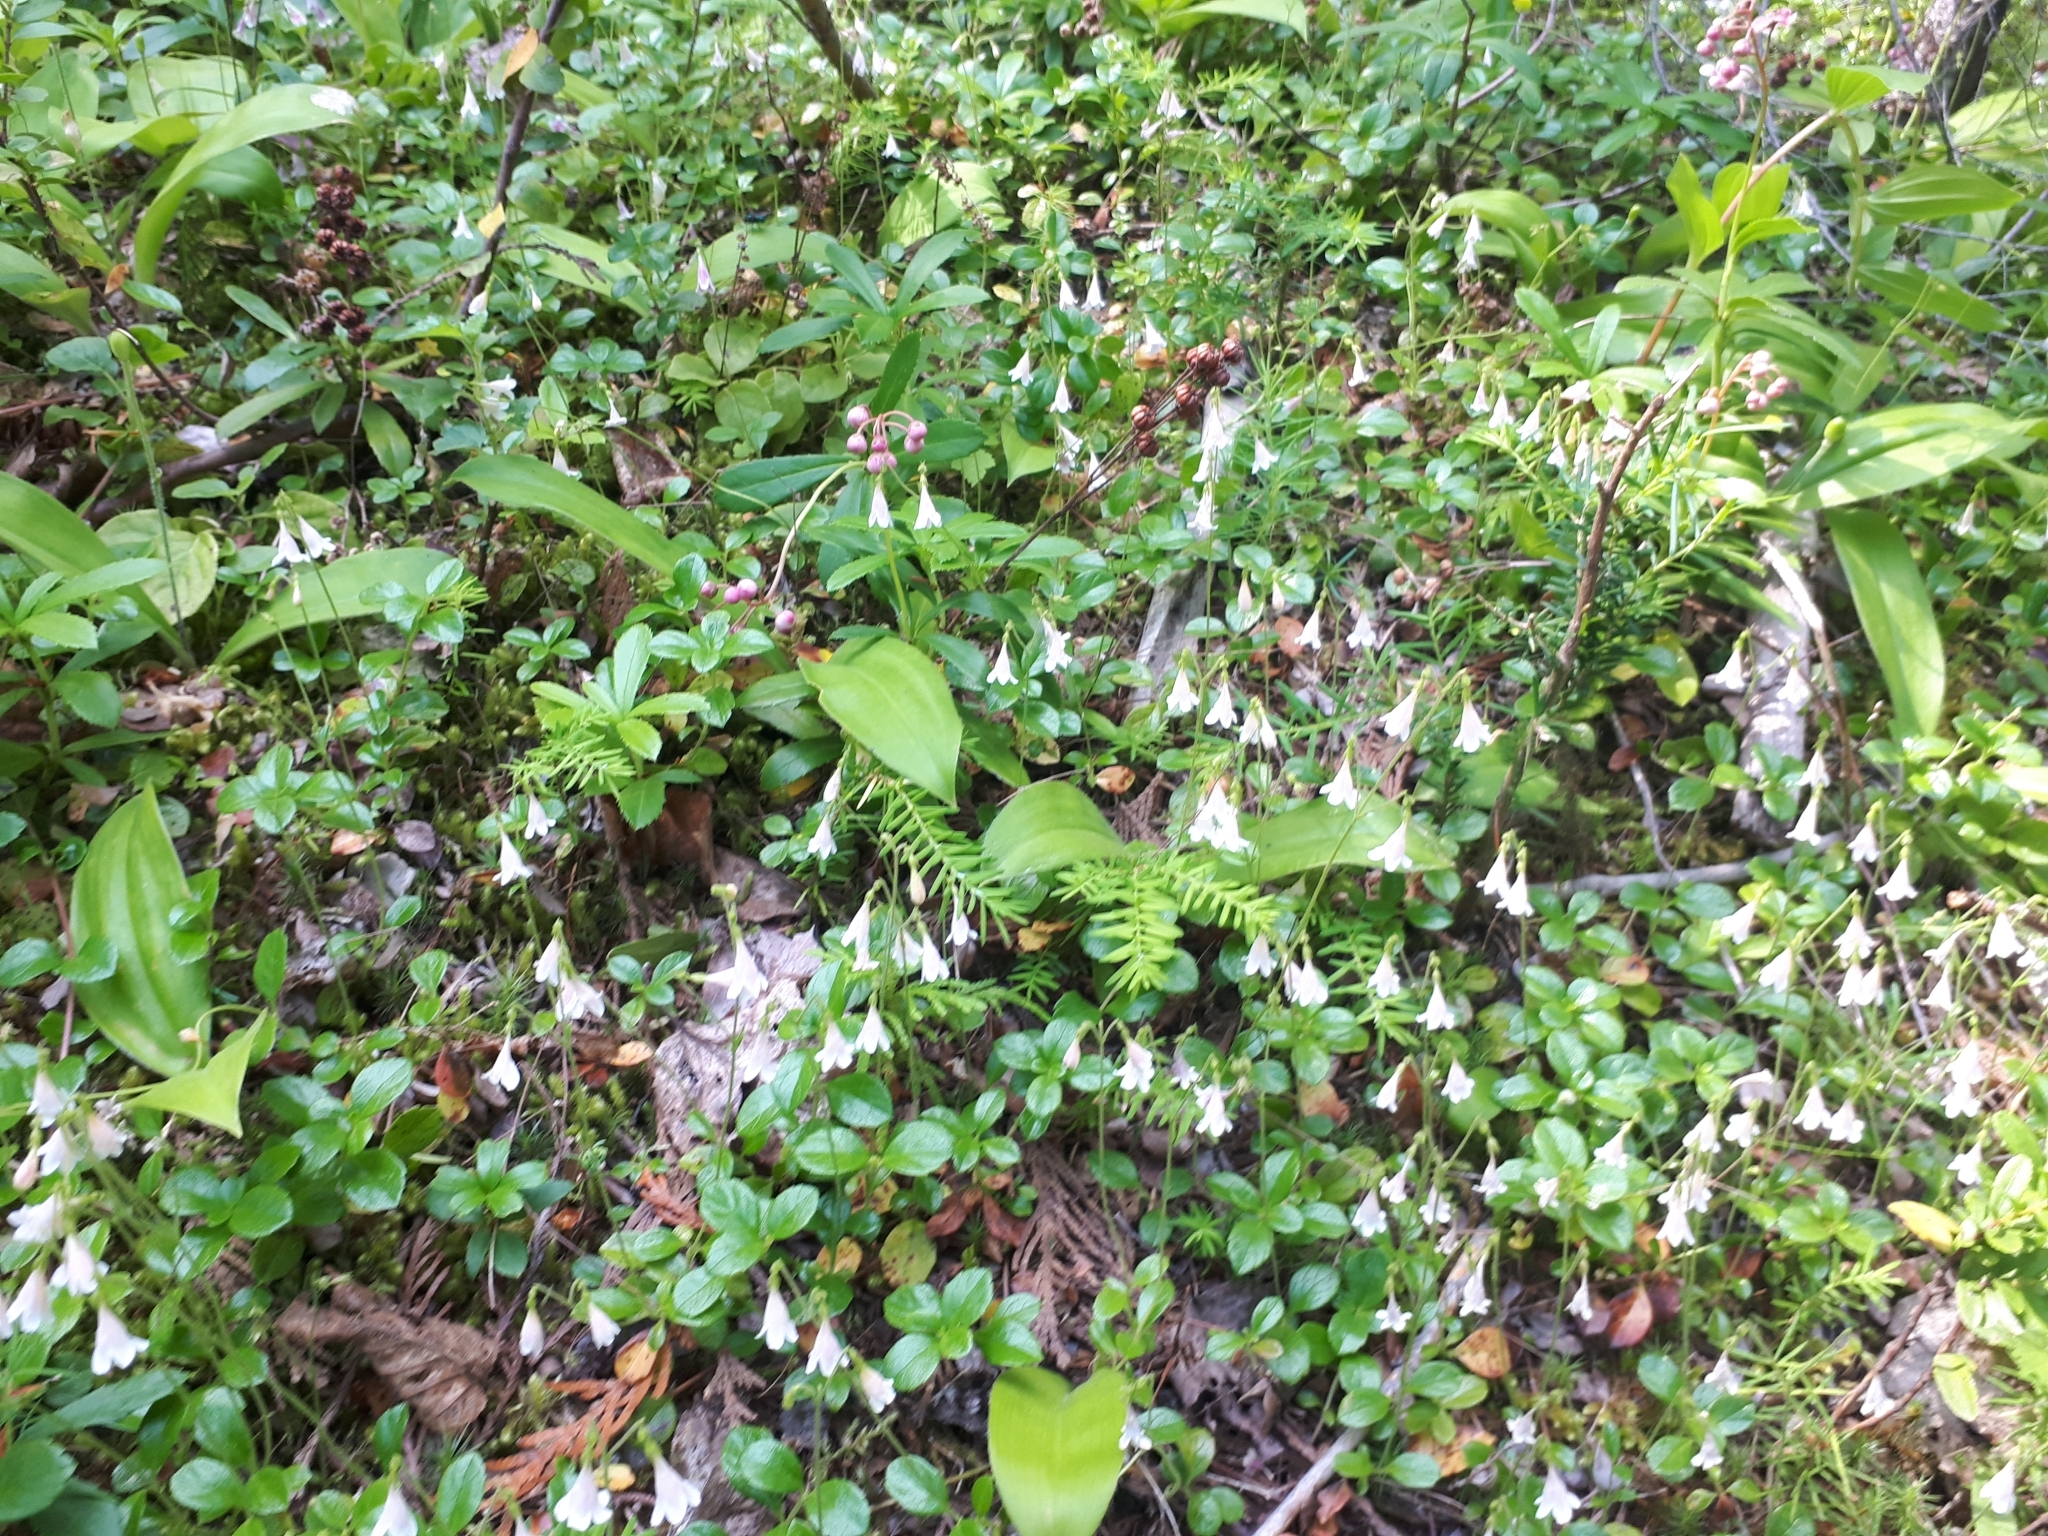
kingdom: Plantae
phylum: Tracheophyta
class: Magnoliopsida
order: Dipsacales
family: Caprifoliaceae
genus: Linnaea
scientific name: Linnaea borealis
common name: Twinflower
